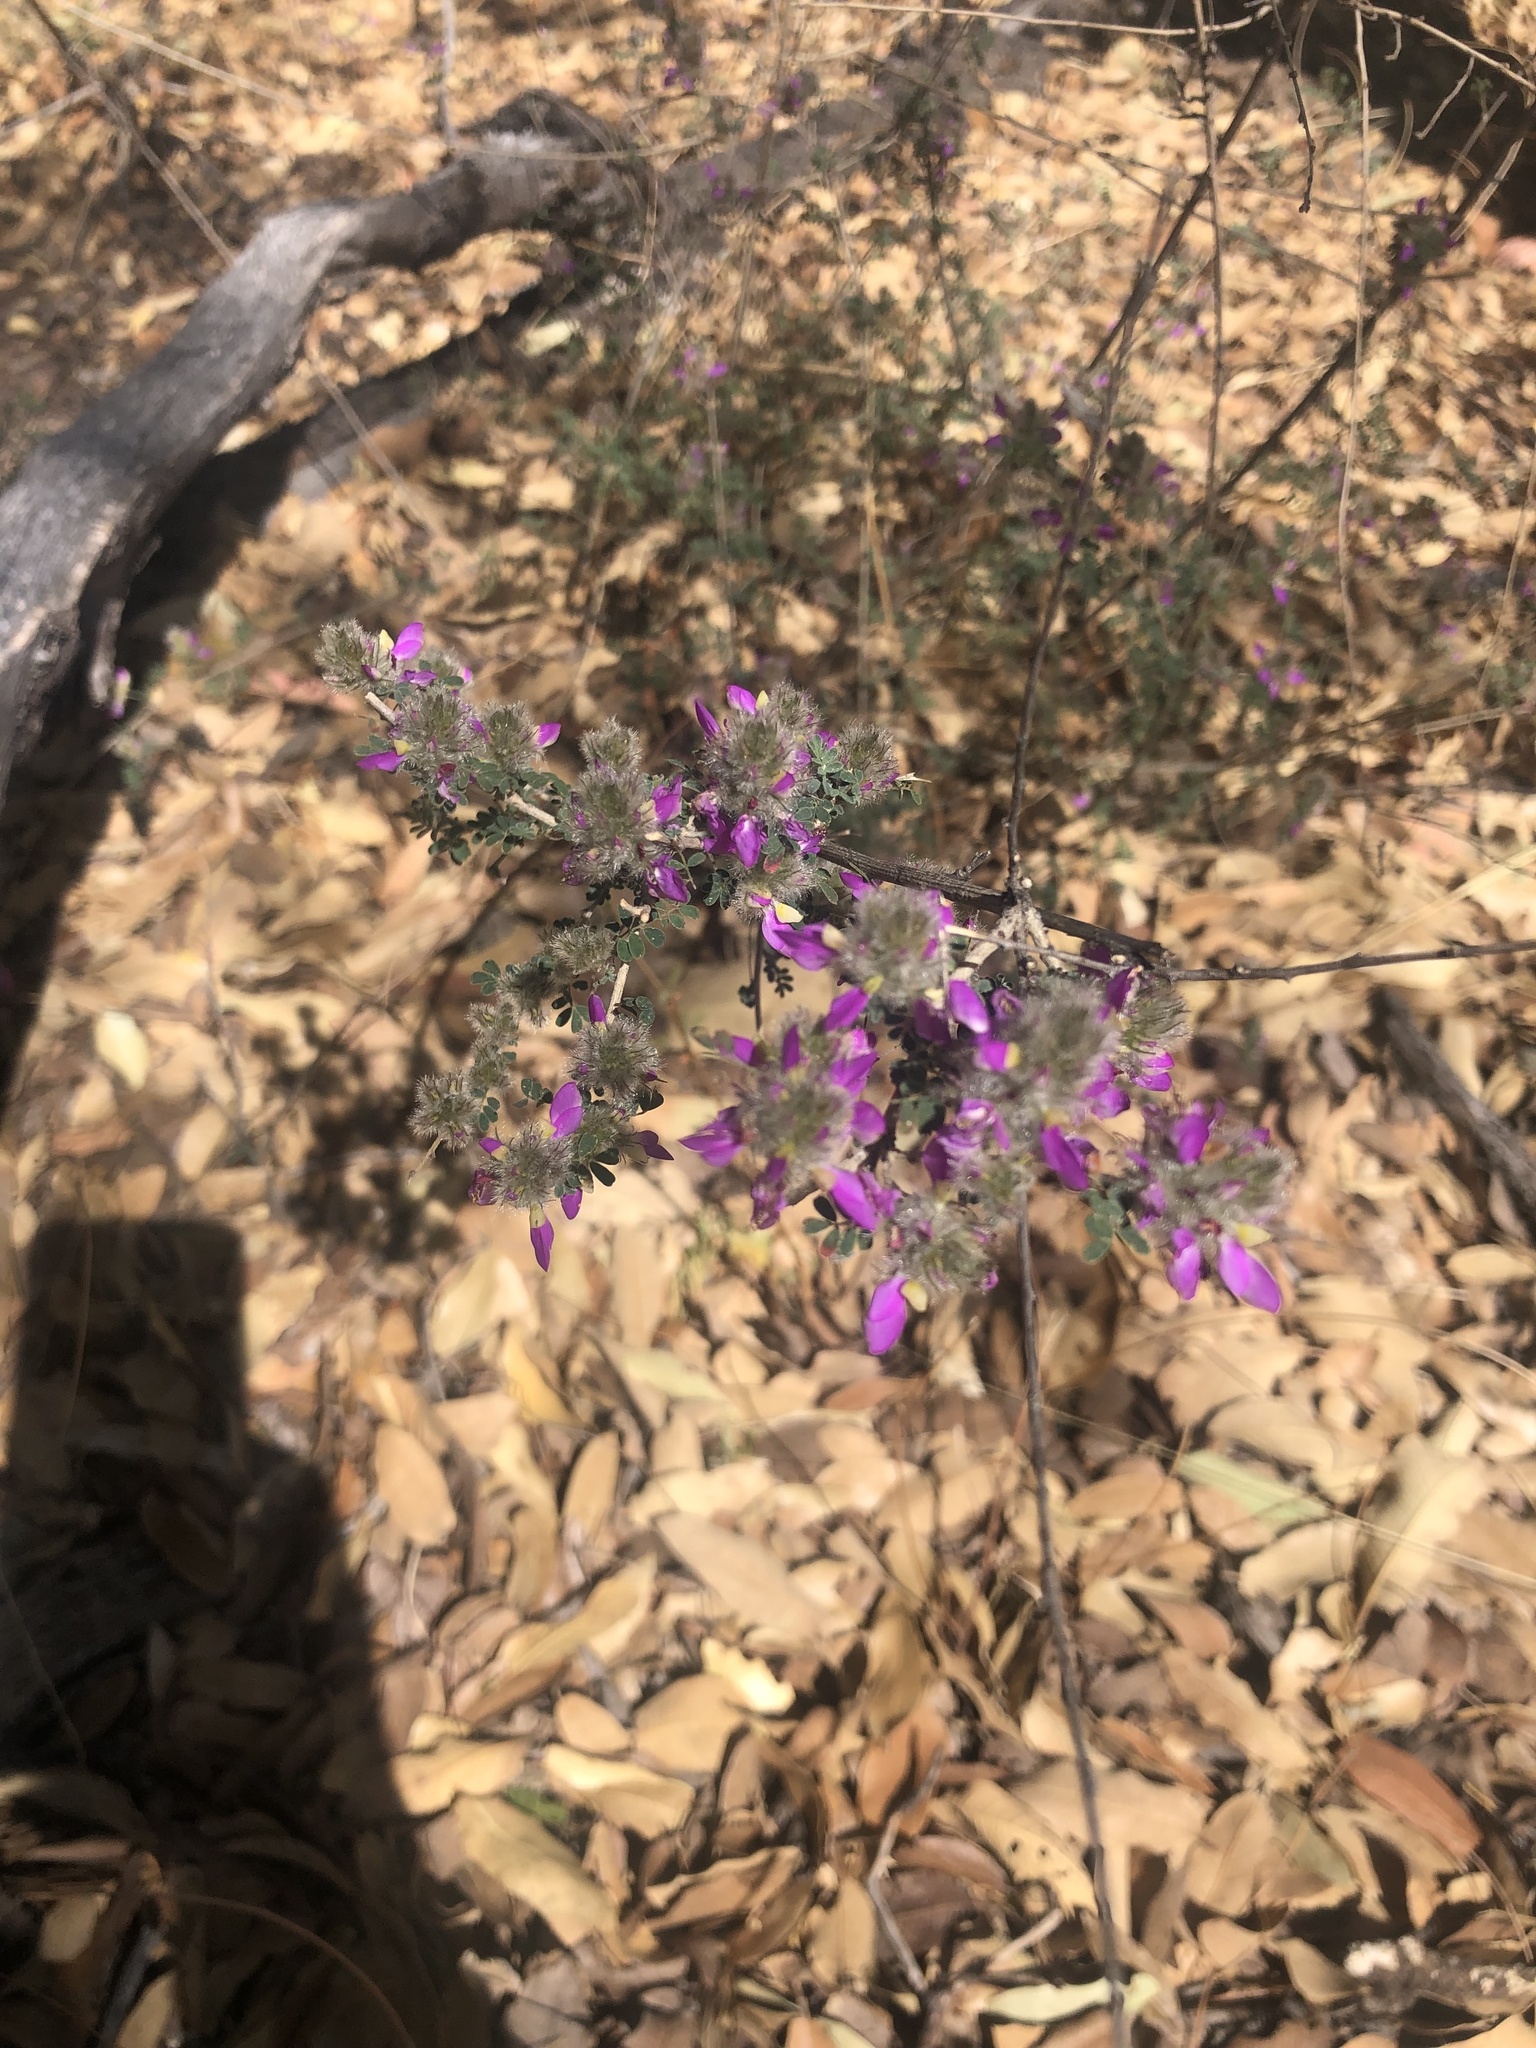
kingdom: Plantae
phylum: Tracheophyta
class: Magnoliopsida
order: Fabales
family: Fabaceae
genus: Dalea
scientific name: Dalea versicolor
